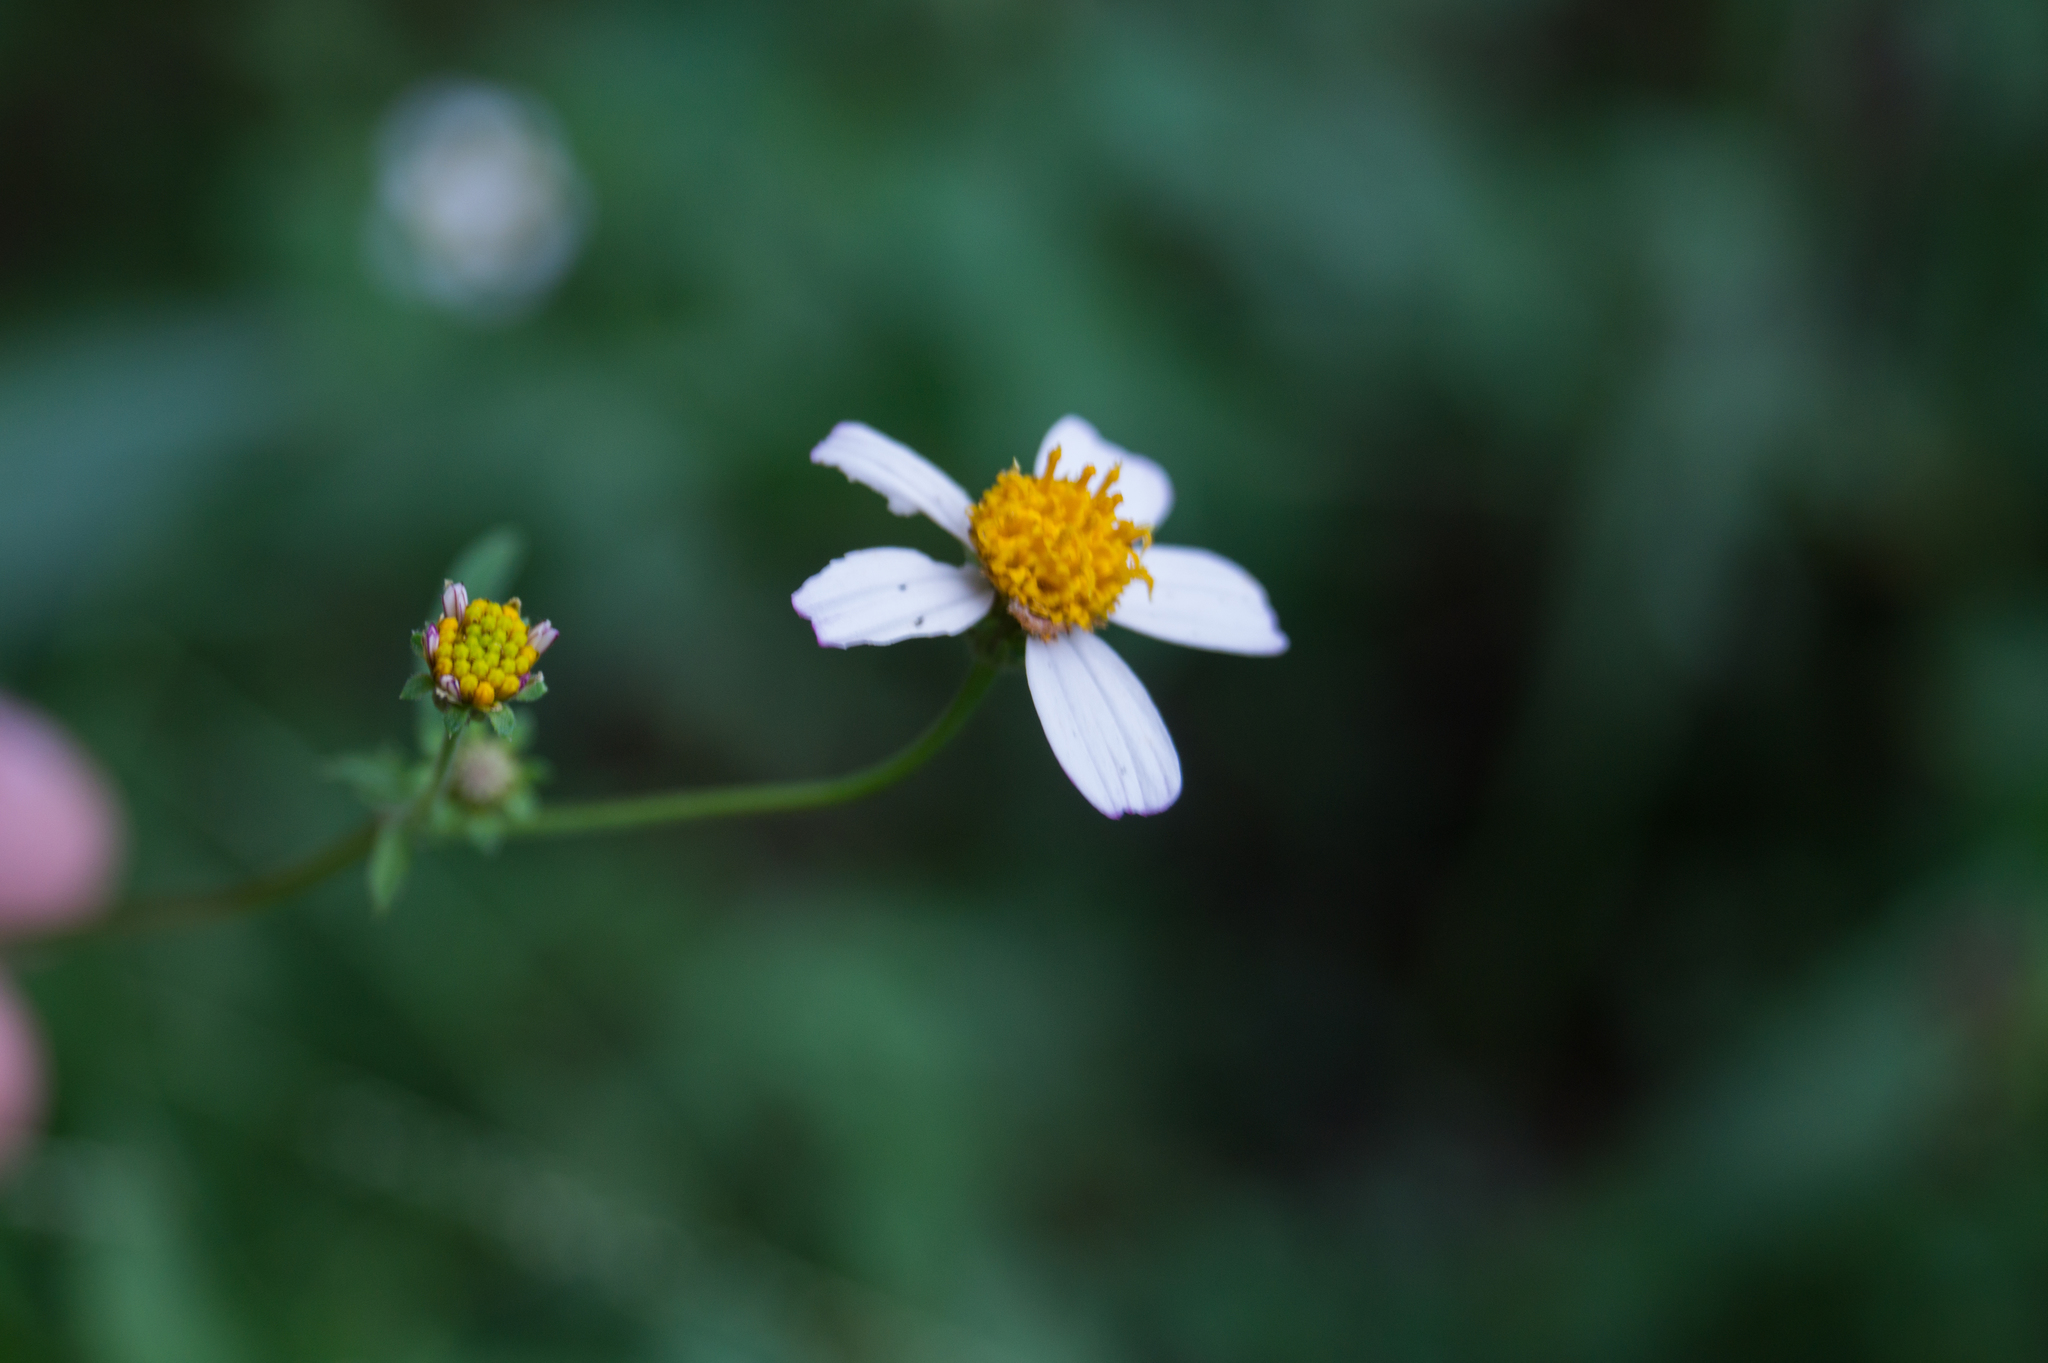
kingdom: Plantae
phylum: Tracheophyta
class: Magnoliopsida
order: Asterales
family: Asteraceae
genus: Bidens
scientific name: Bidens alba
